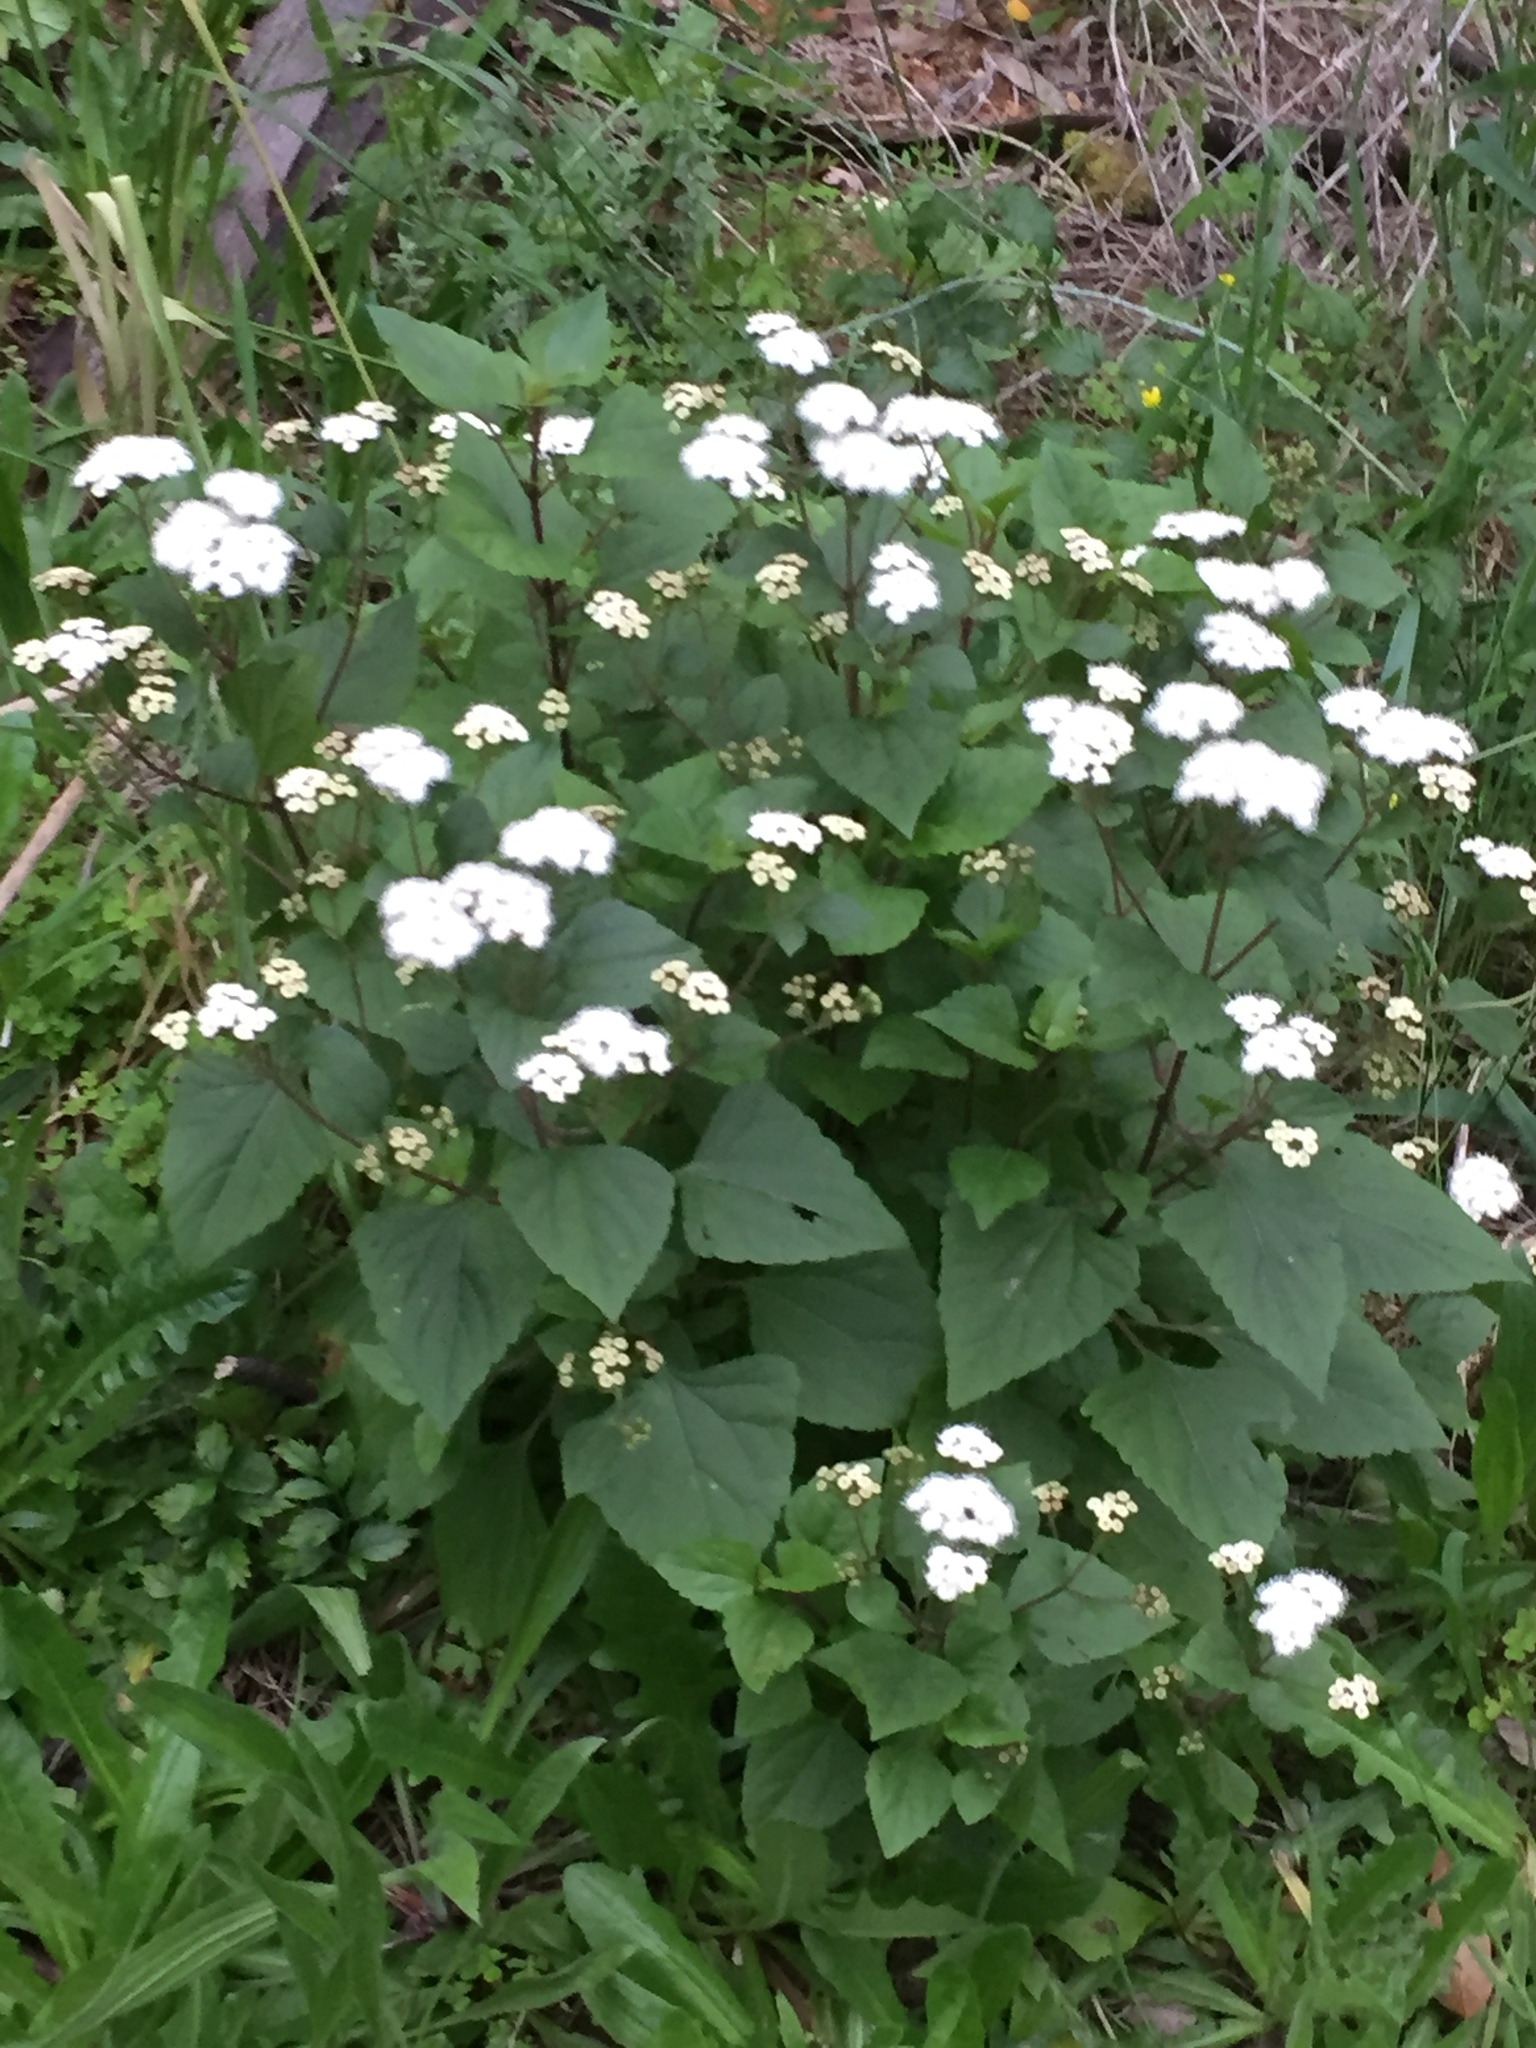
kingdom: Plantae
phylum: Tracheophyta
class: Magnoliopsida
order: Asterales
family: Asteraceae
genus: Ageratina
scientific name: Ageratina adenophora
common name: Sticky snakeroot
